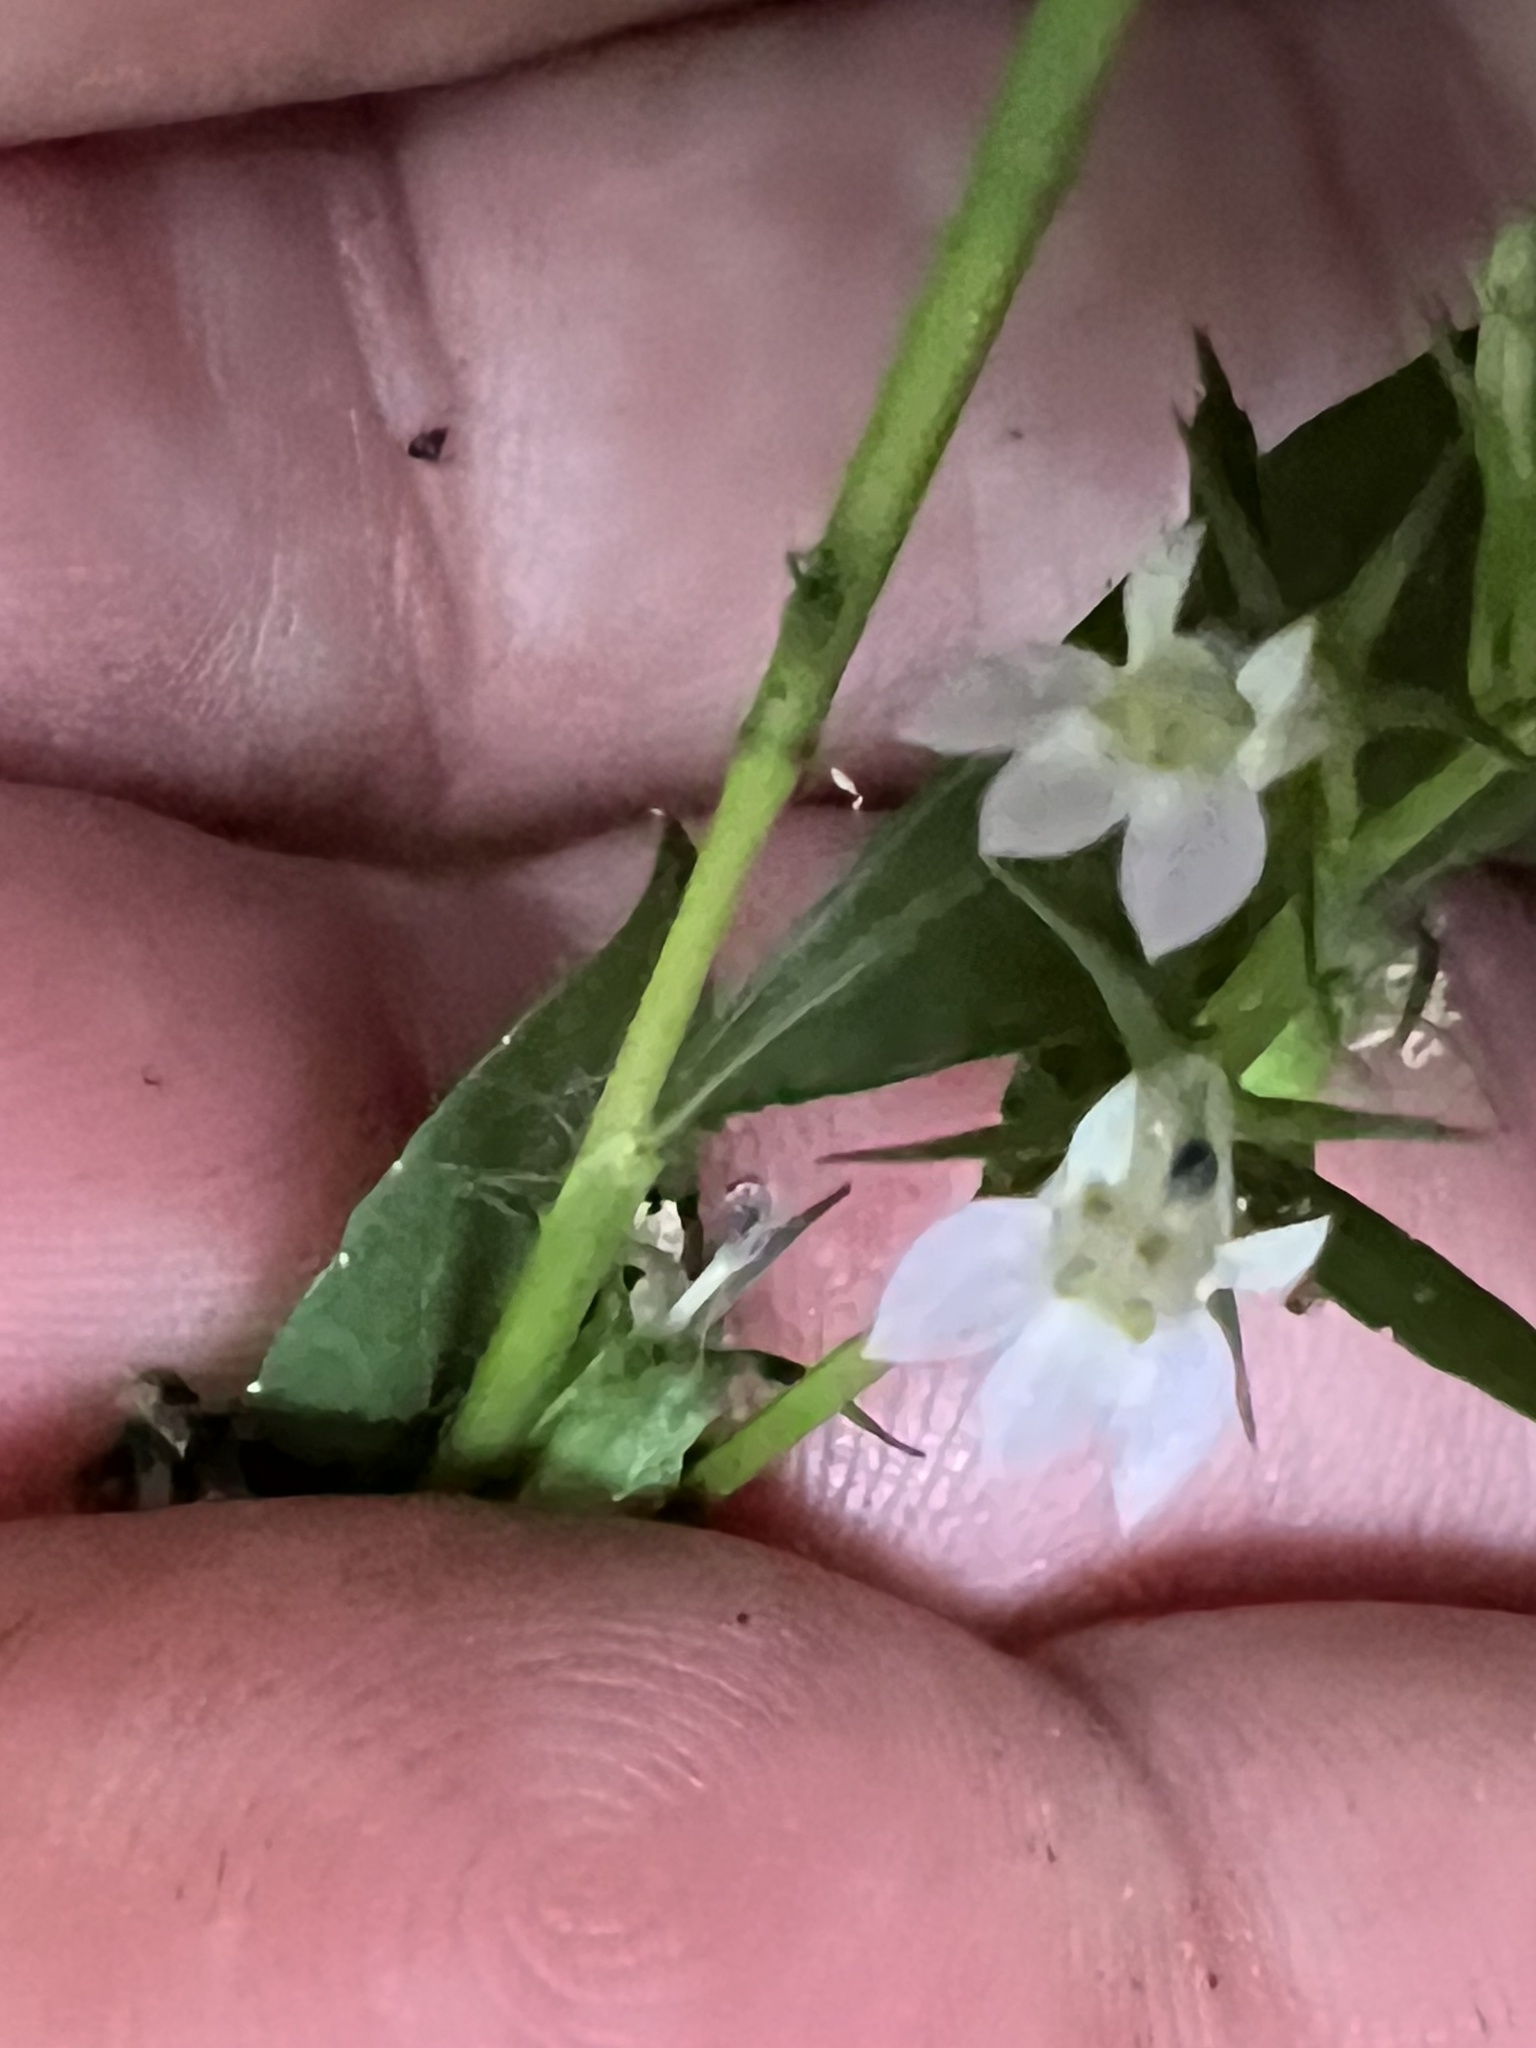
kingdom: Plantae
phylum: Tracheophyta
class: Magnoliopsida
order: Asterales
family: Campanulaceae
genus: Lobelia
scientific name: Lobelia inflata
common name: Indian tobacco
